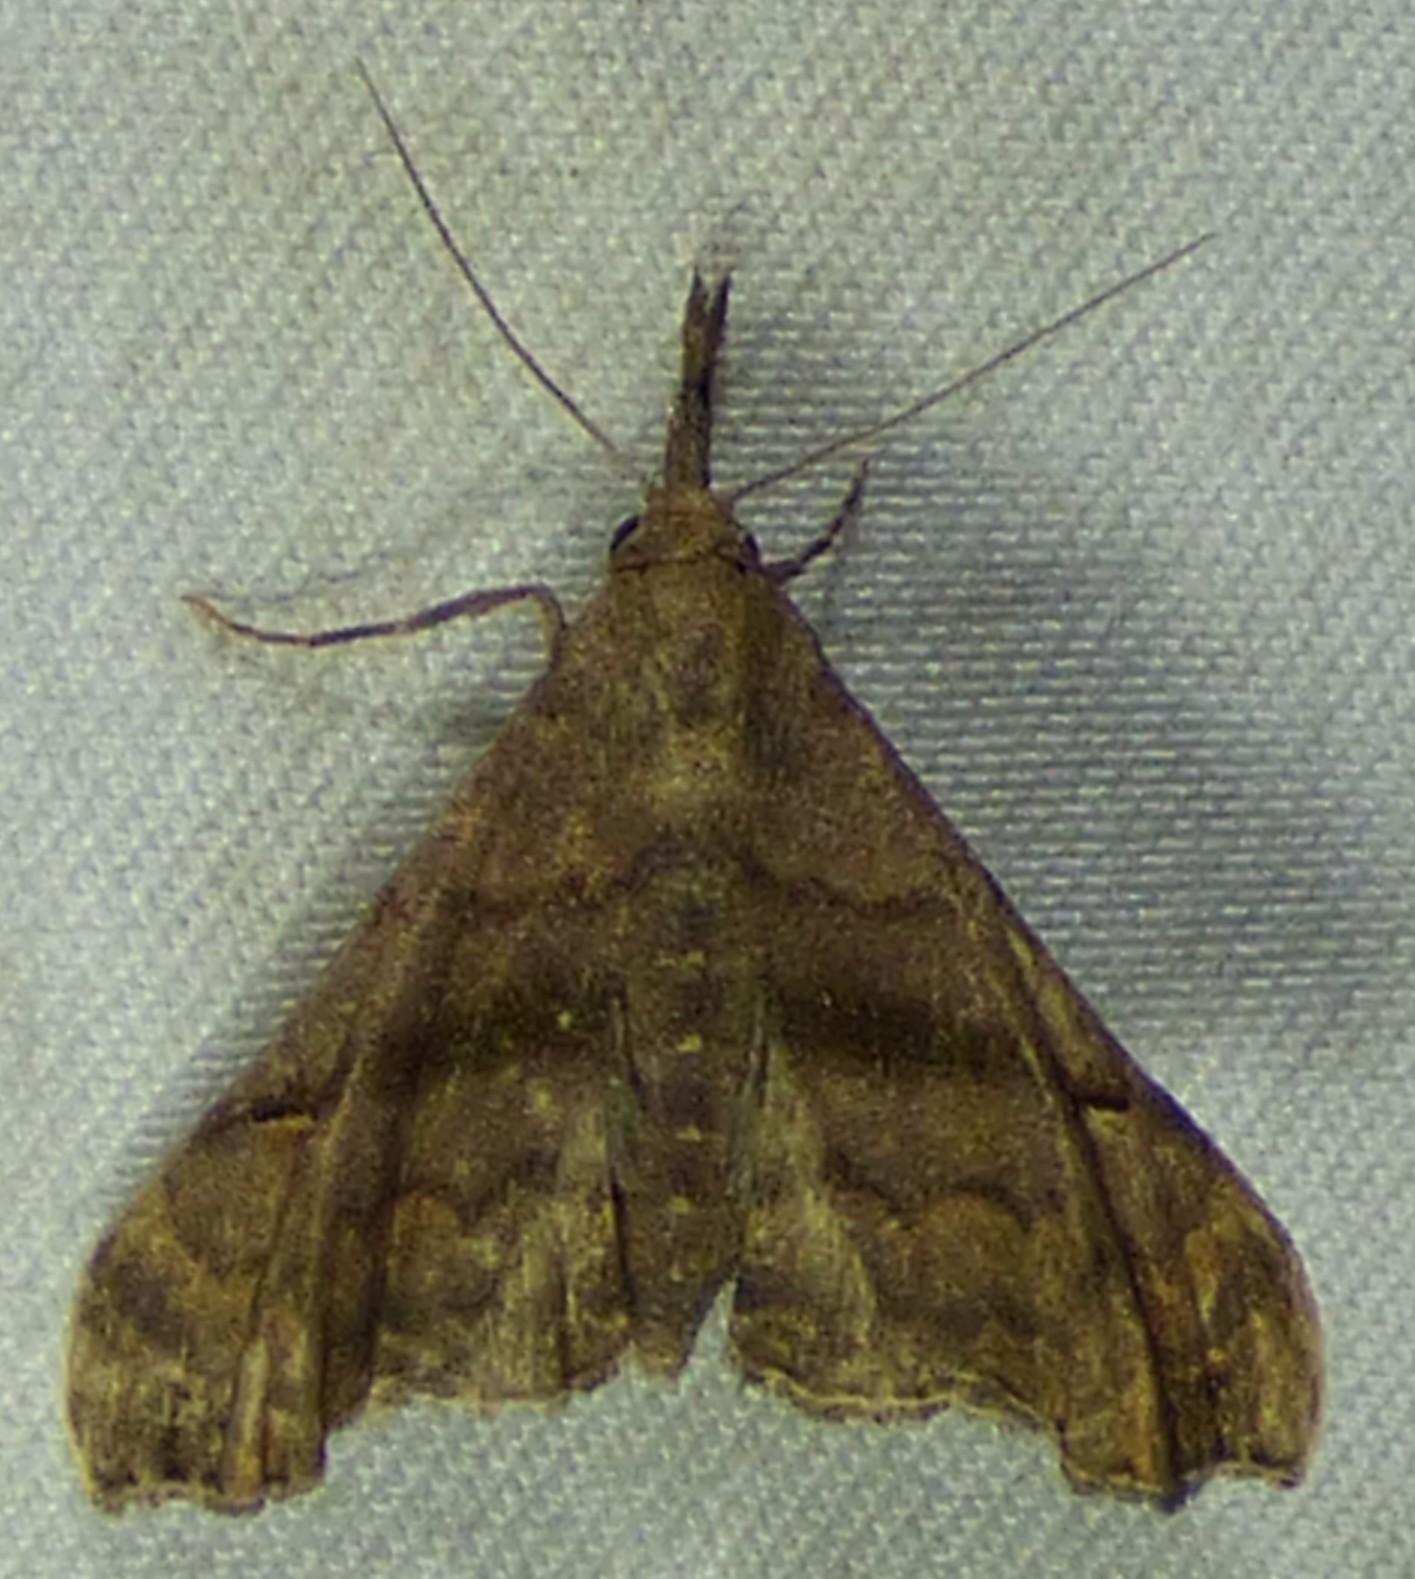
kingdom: Animalia
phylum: Arthropoda
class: Insecta
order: Lepidoptera
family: Erebidae
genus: Palthis
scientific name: Palthis asopialis
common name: Faint-spotted palthis moth
